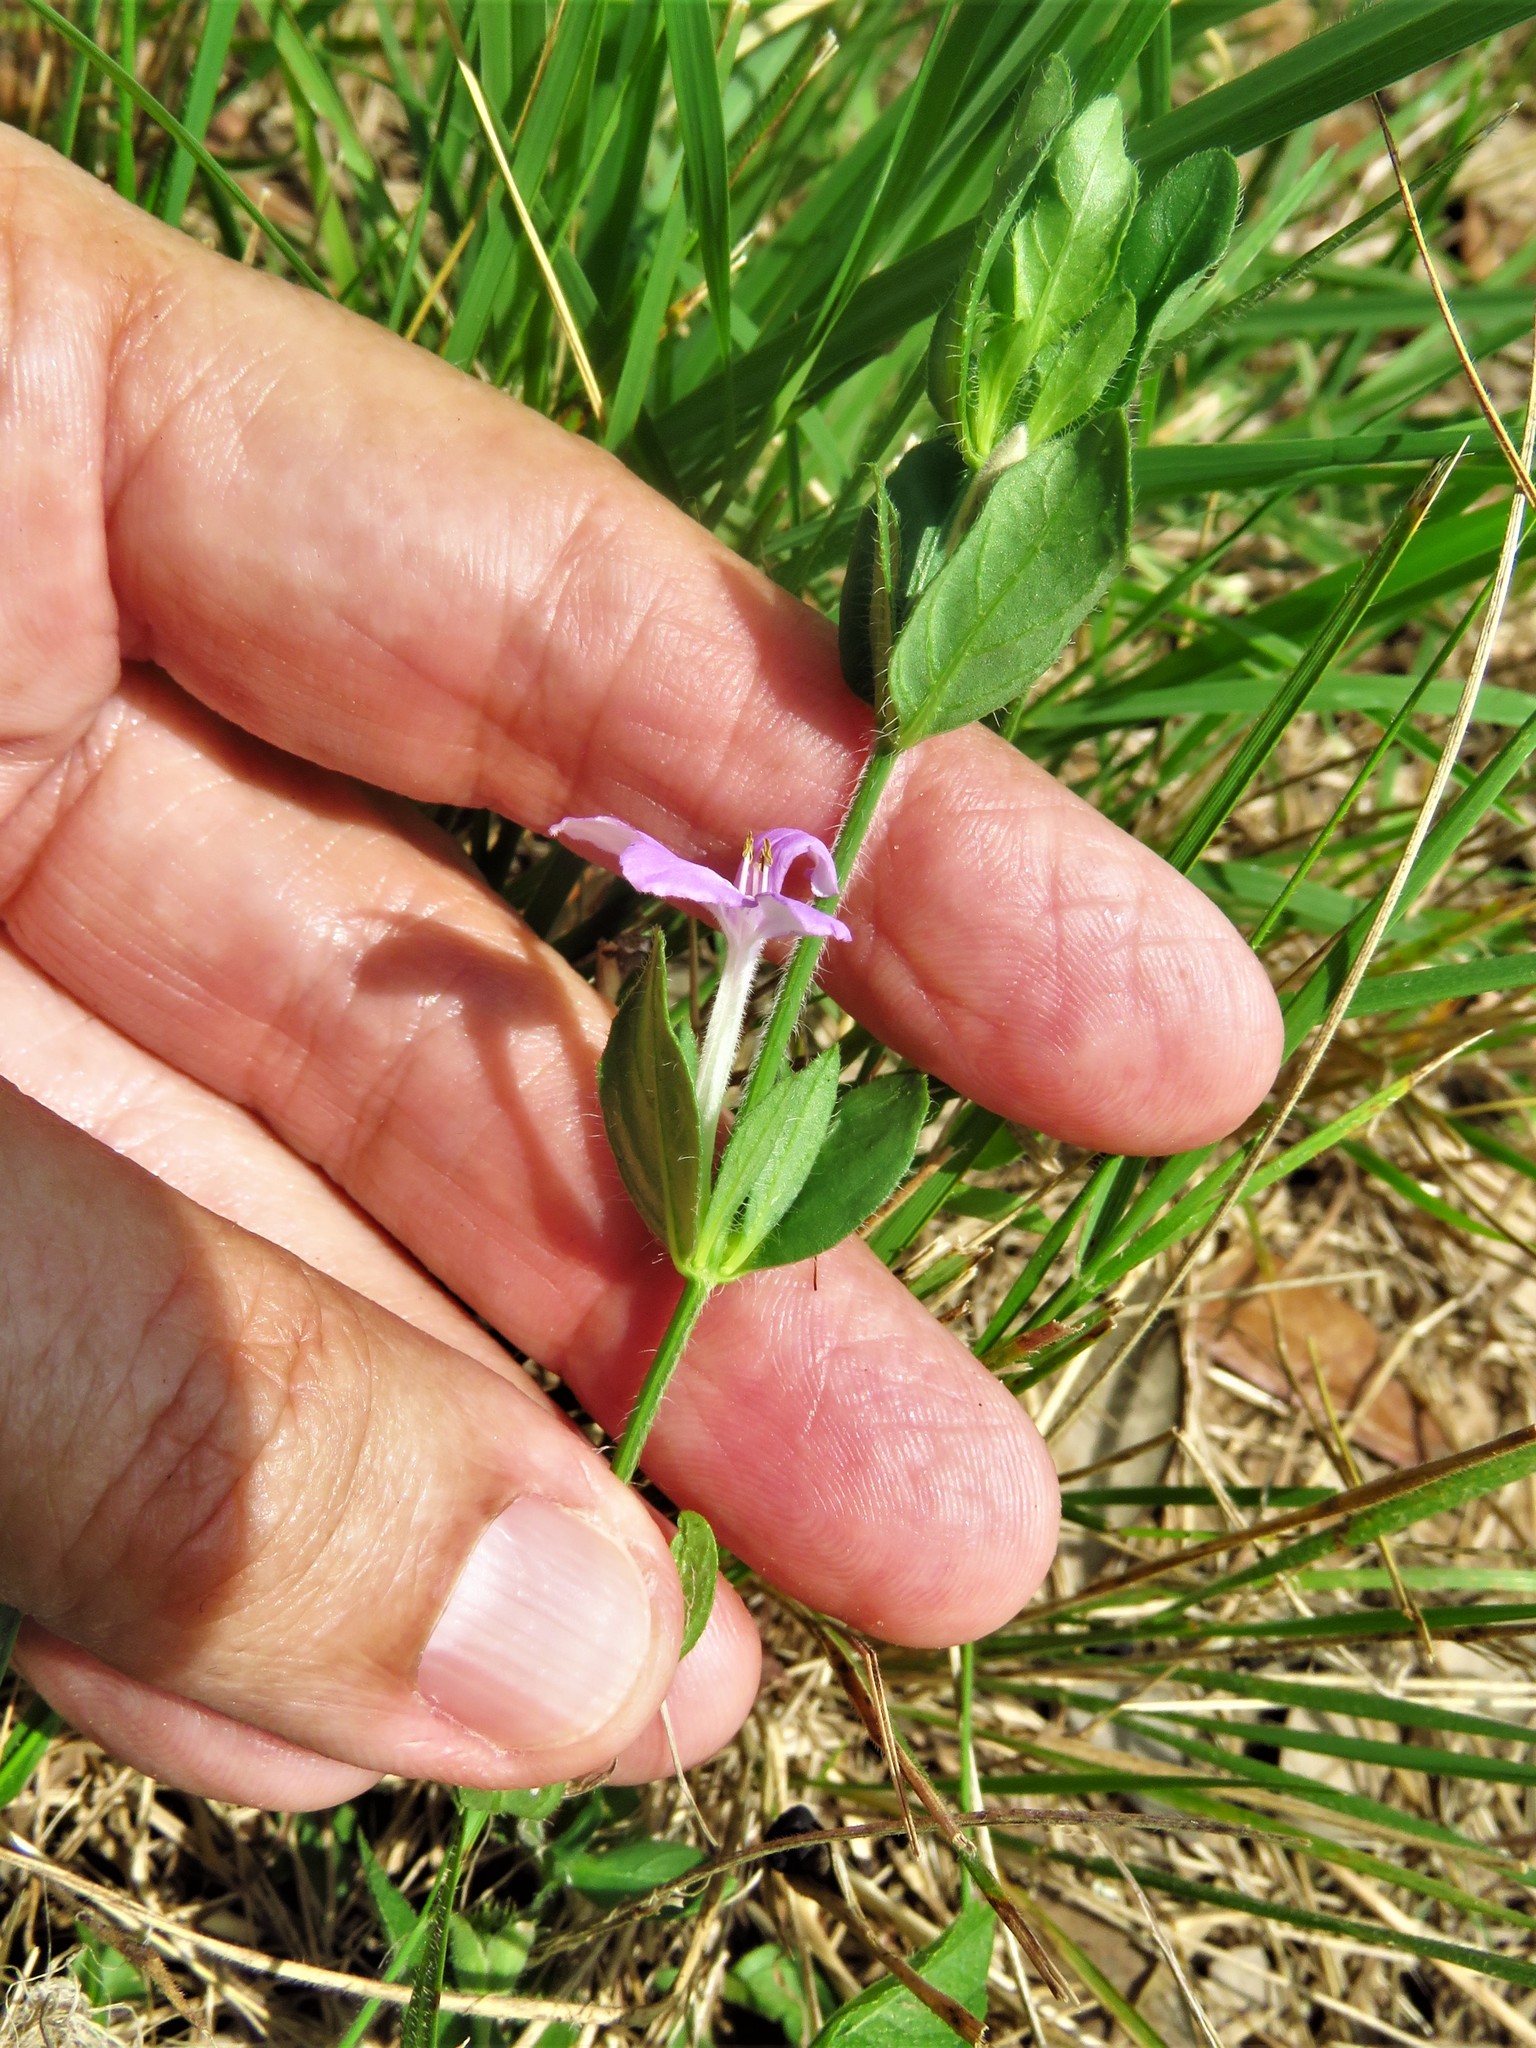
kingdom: Plantae
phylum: Tracheophyta
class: Magnoliopsida
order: Lamiales
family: Acanthaceae
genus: Justicia
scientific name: Justicia pilosella
